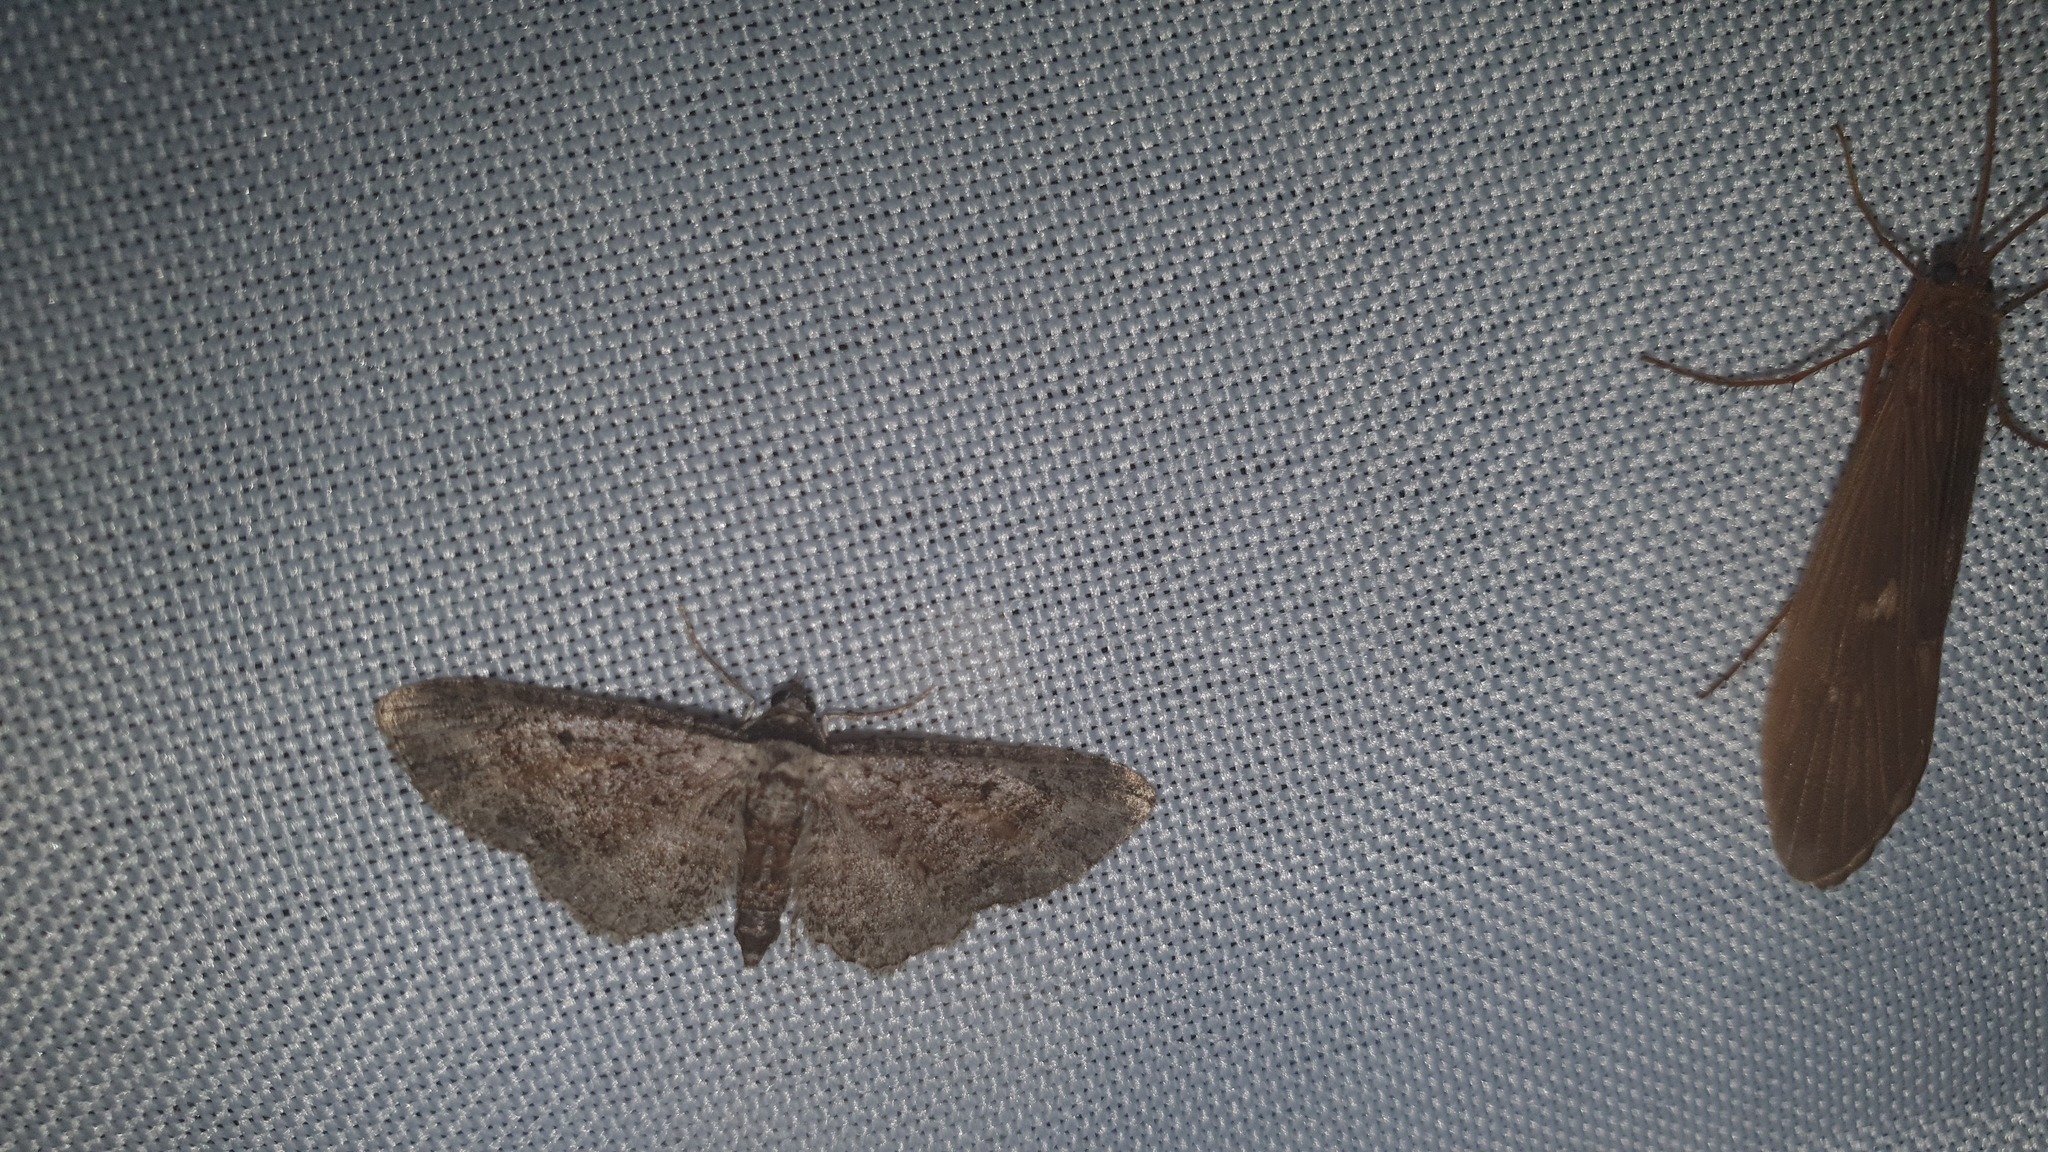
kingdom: Animalia
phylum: Arthropoda
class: Insecta
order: Lepidoptera
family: Geometridae
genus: Eupithecia
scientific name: Eupithecia icterata
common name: Tawny speckled pug
